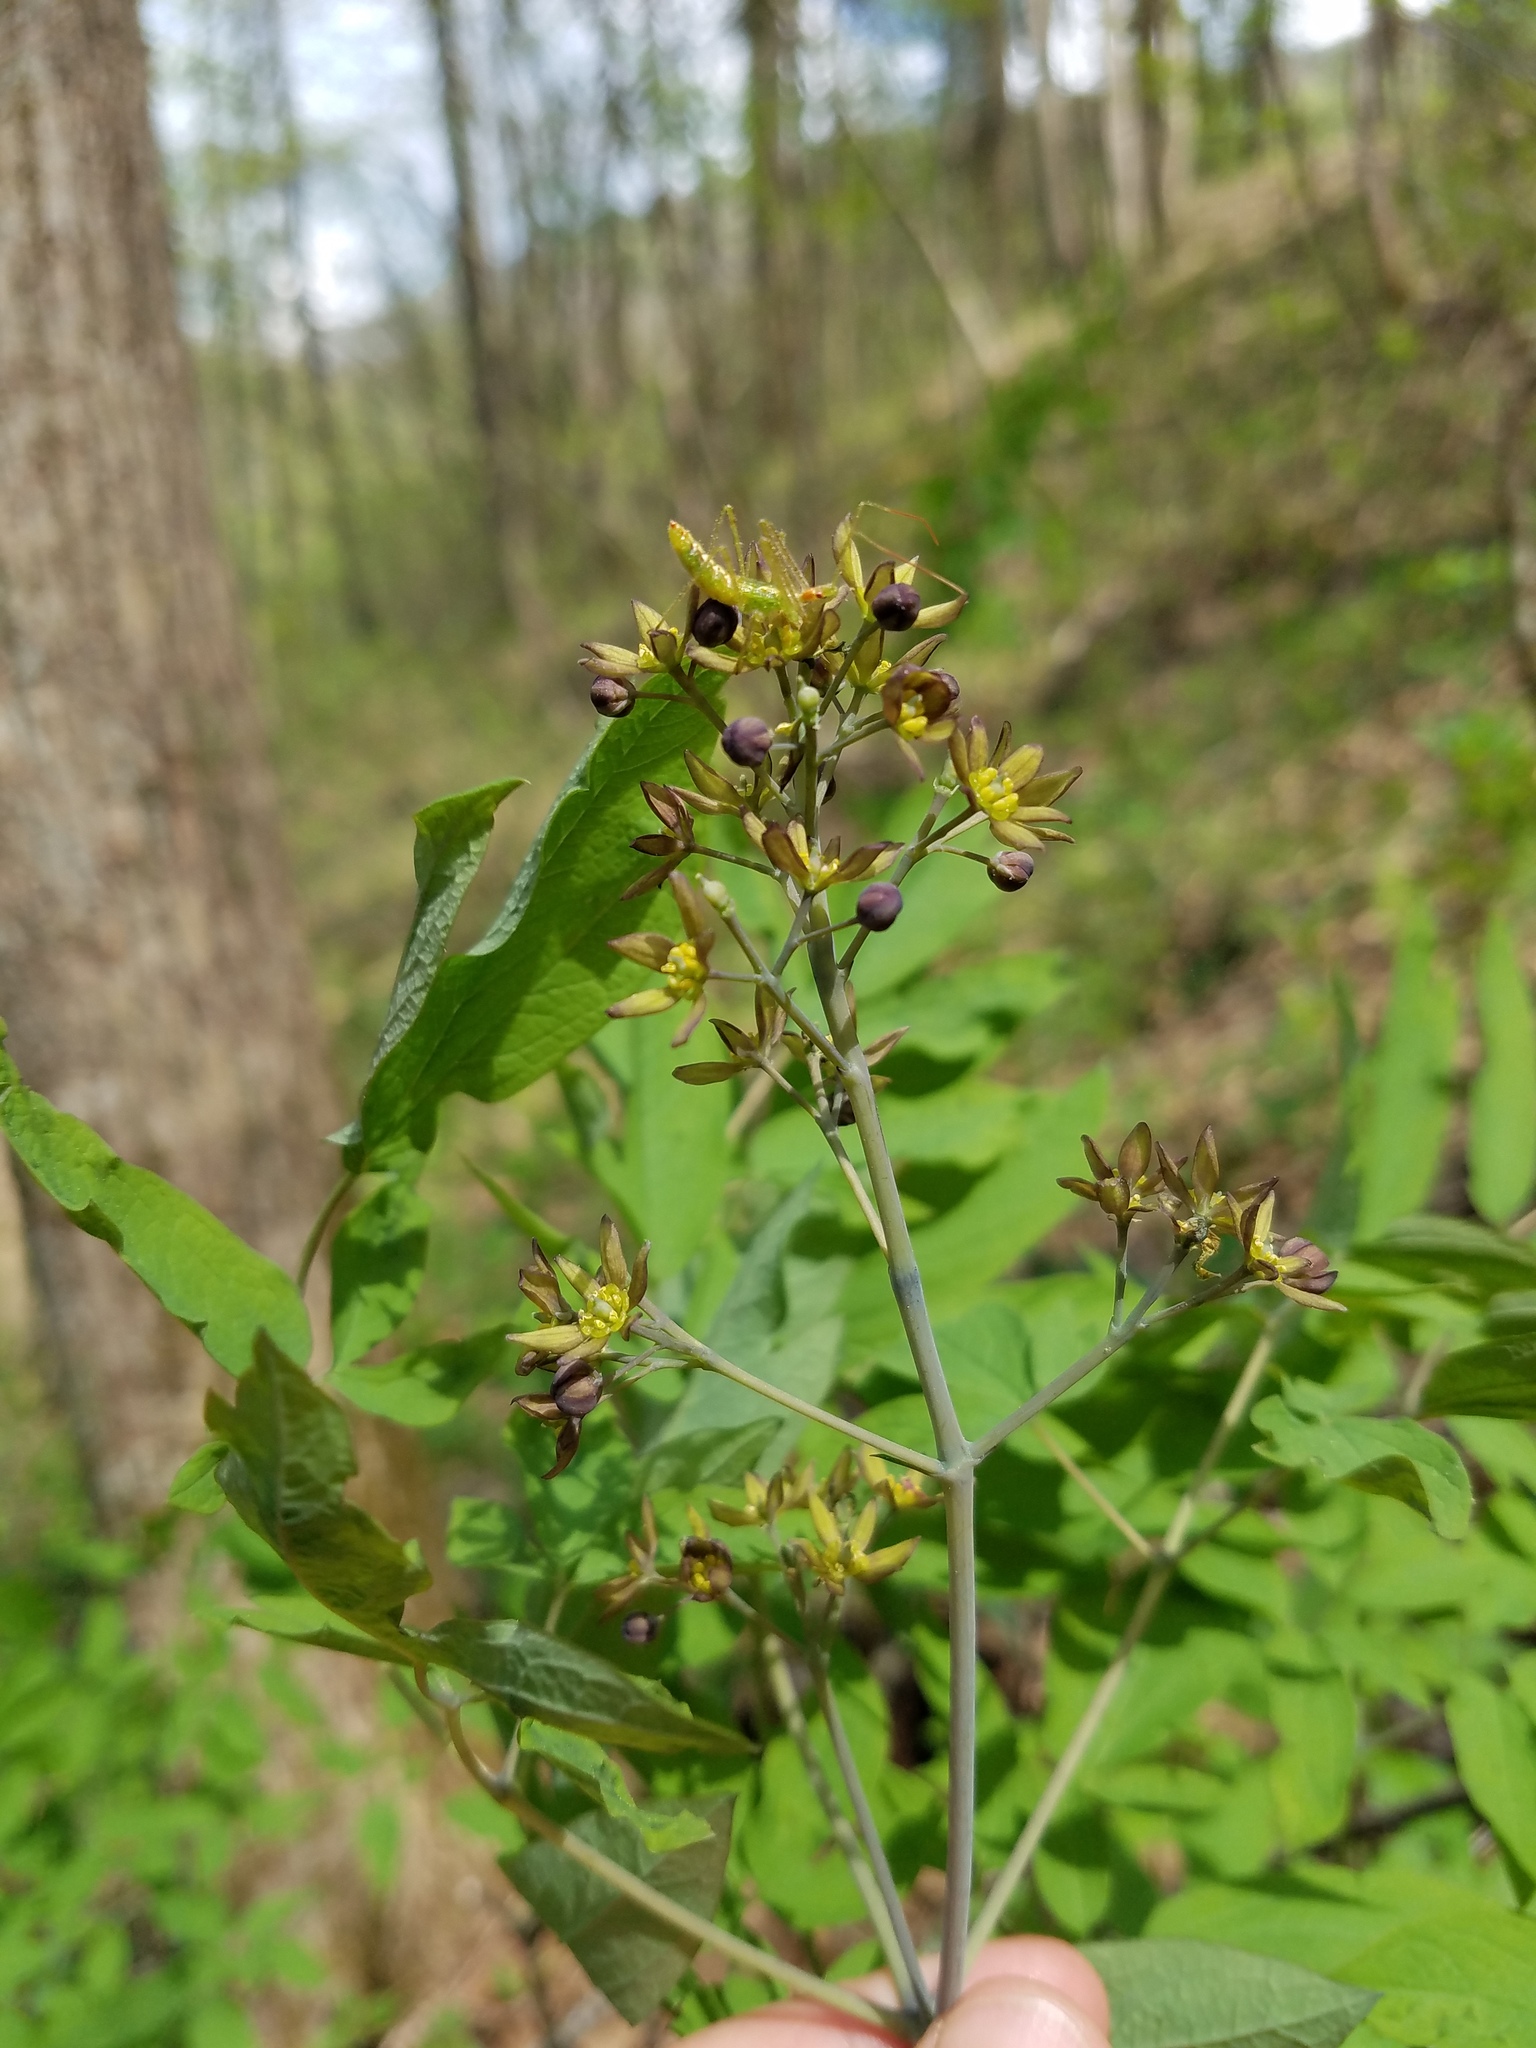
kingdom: Plantae
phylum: Tracheophyta
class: Magnoliopsida
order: Ranunculales
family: Berberidaceae
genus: Caulophyllum
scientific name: Caulophyllum thalictroides
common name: Blue cohosh
